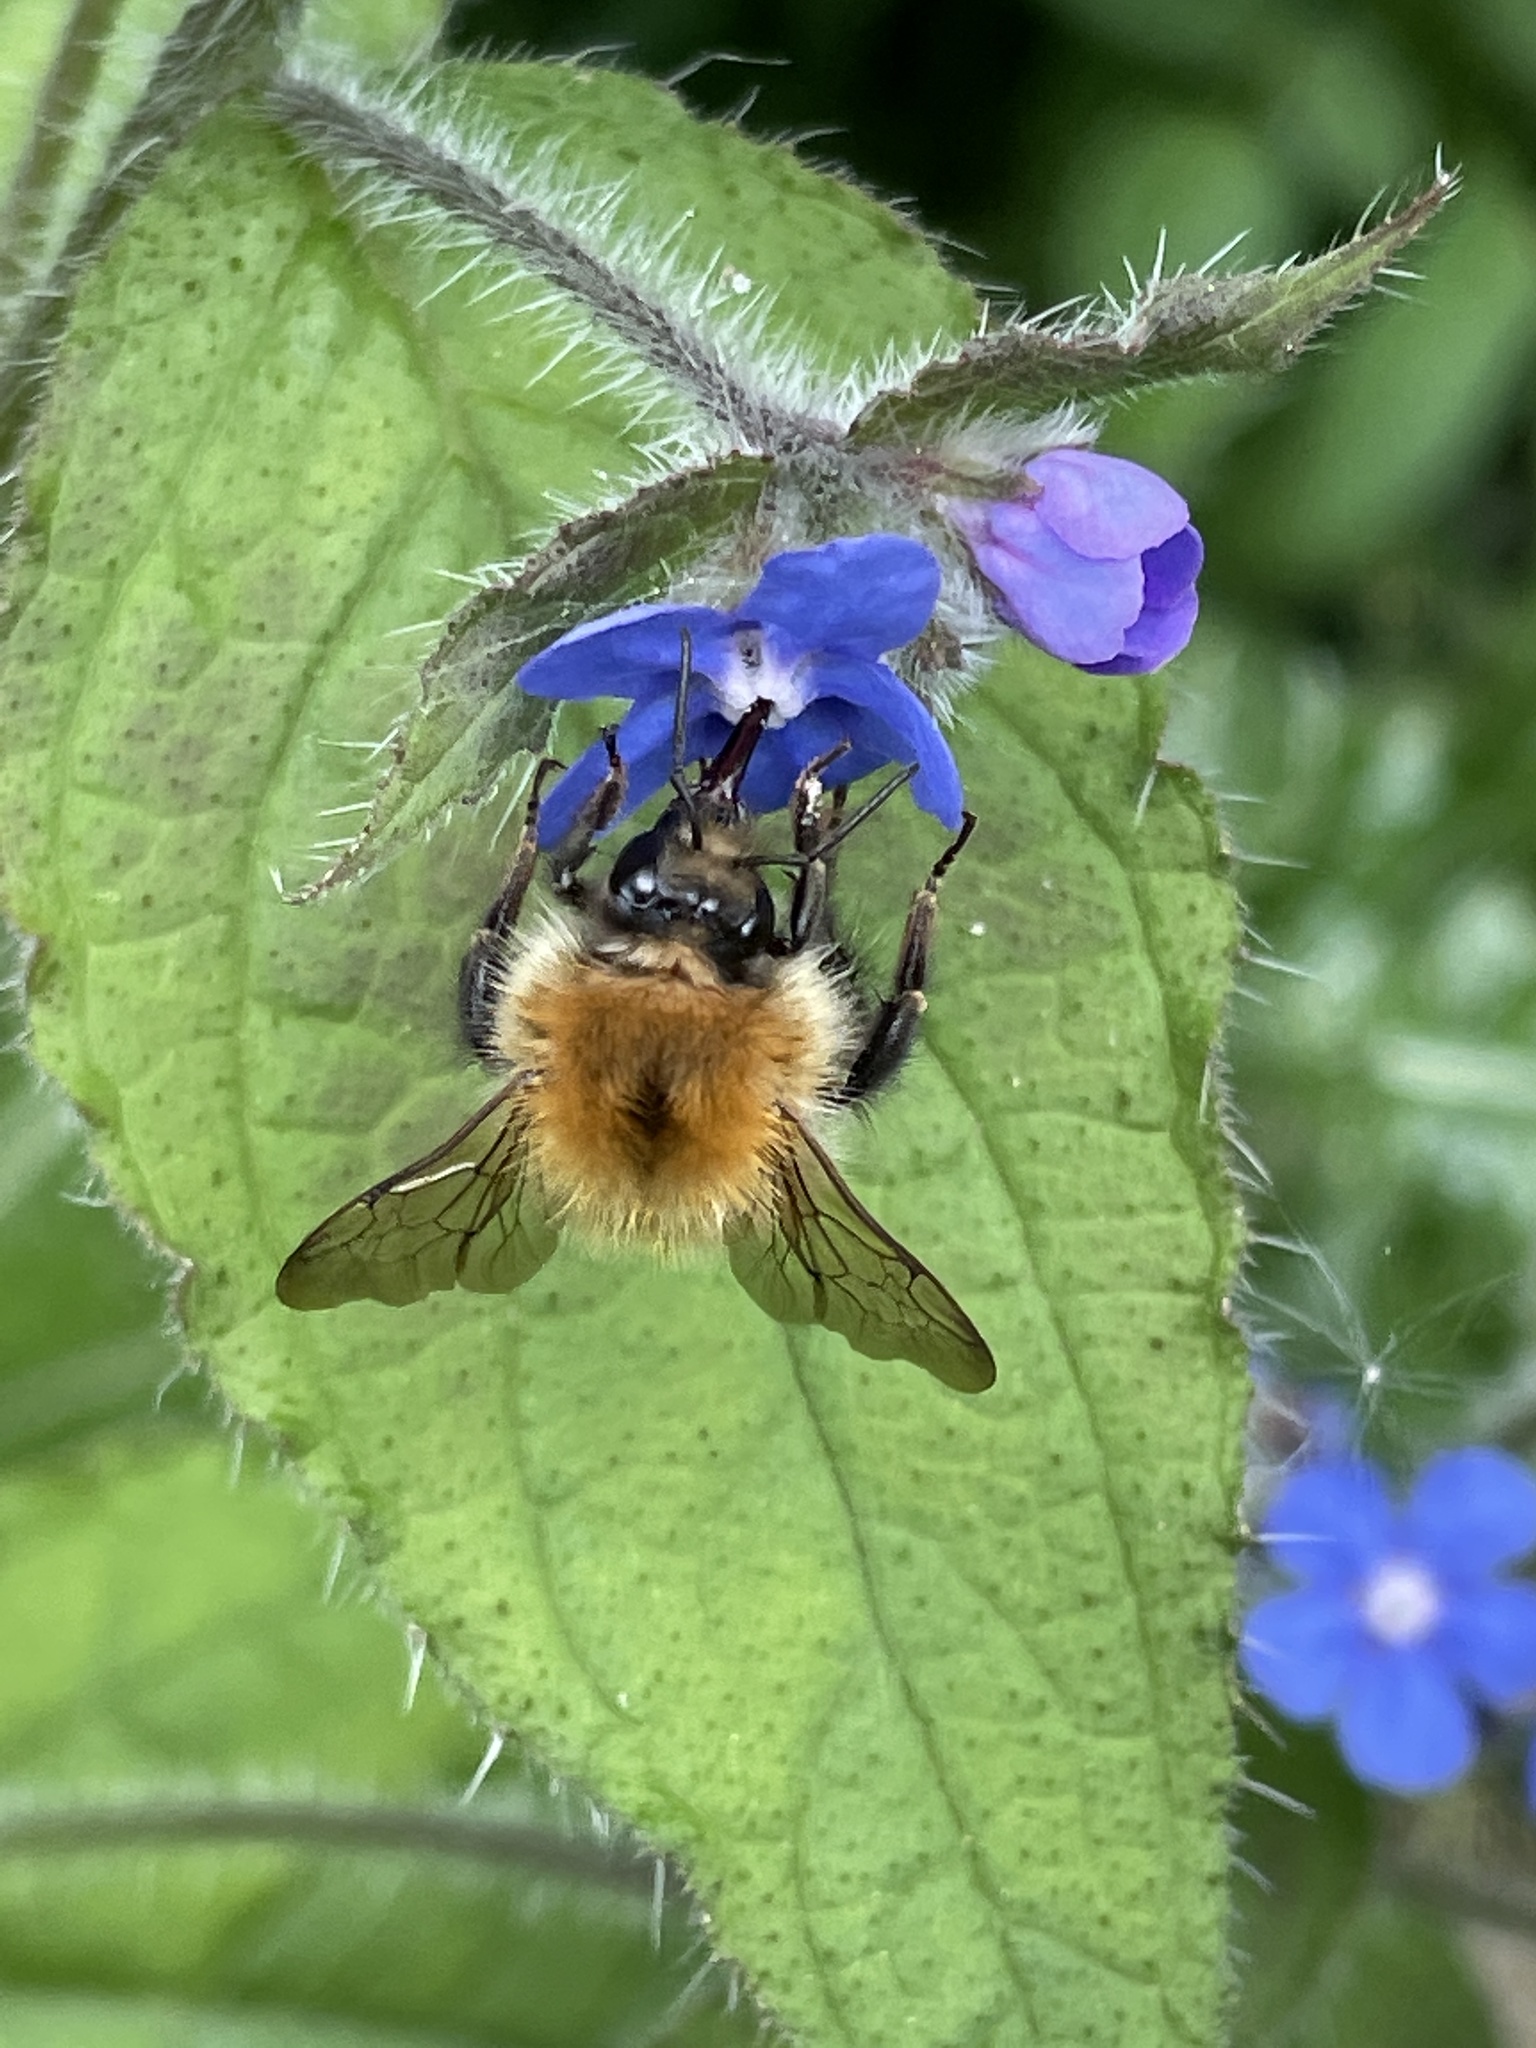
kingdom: Animalia
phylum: Arthropoda
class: Insecta
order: Hymenoptera
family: Apidae
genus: Bombus
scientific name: Bombus pascuorum
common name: Common carder bee
